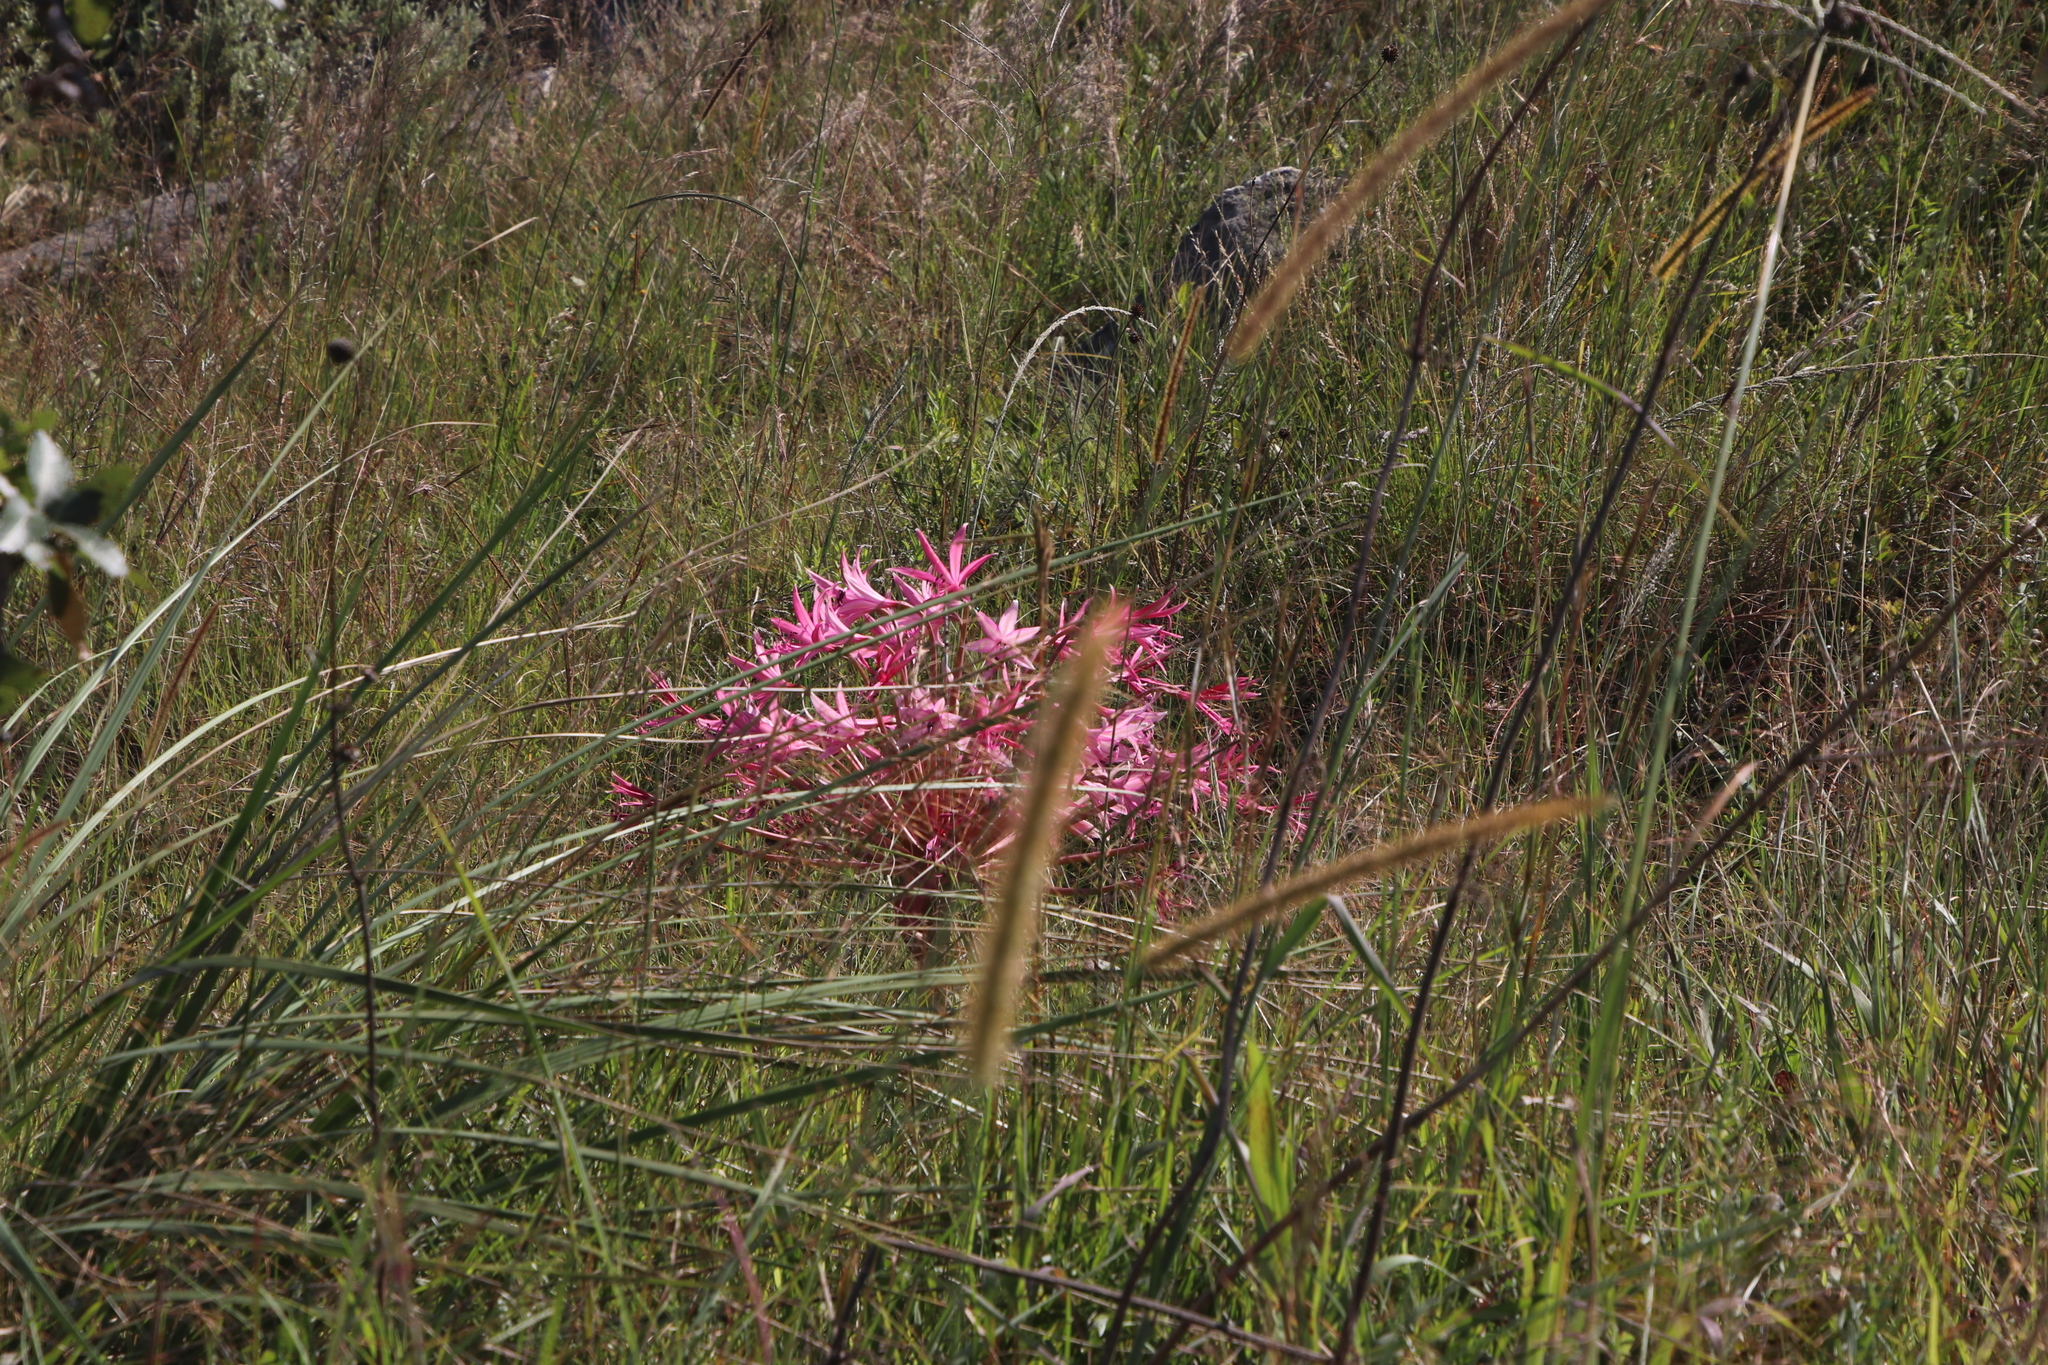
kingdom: Plantae
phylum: Tracheophyta
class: Liliopsida
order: Asparagales
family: Amaryllidaceae
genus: Brunsvigia
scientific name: Brunsvigia radulosa
